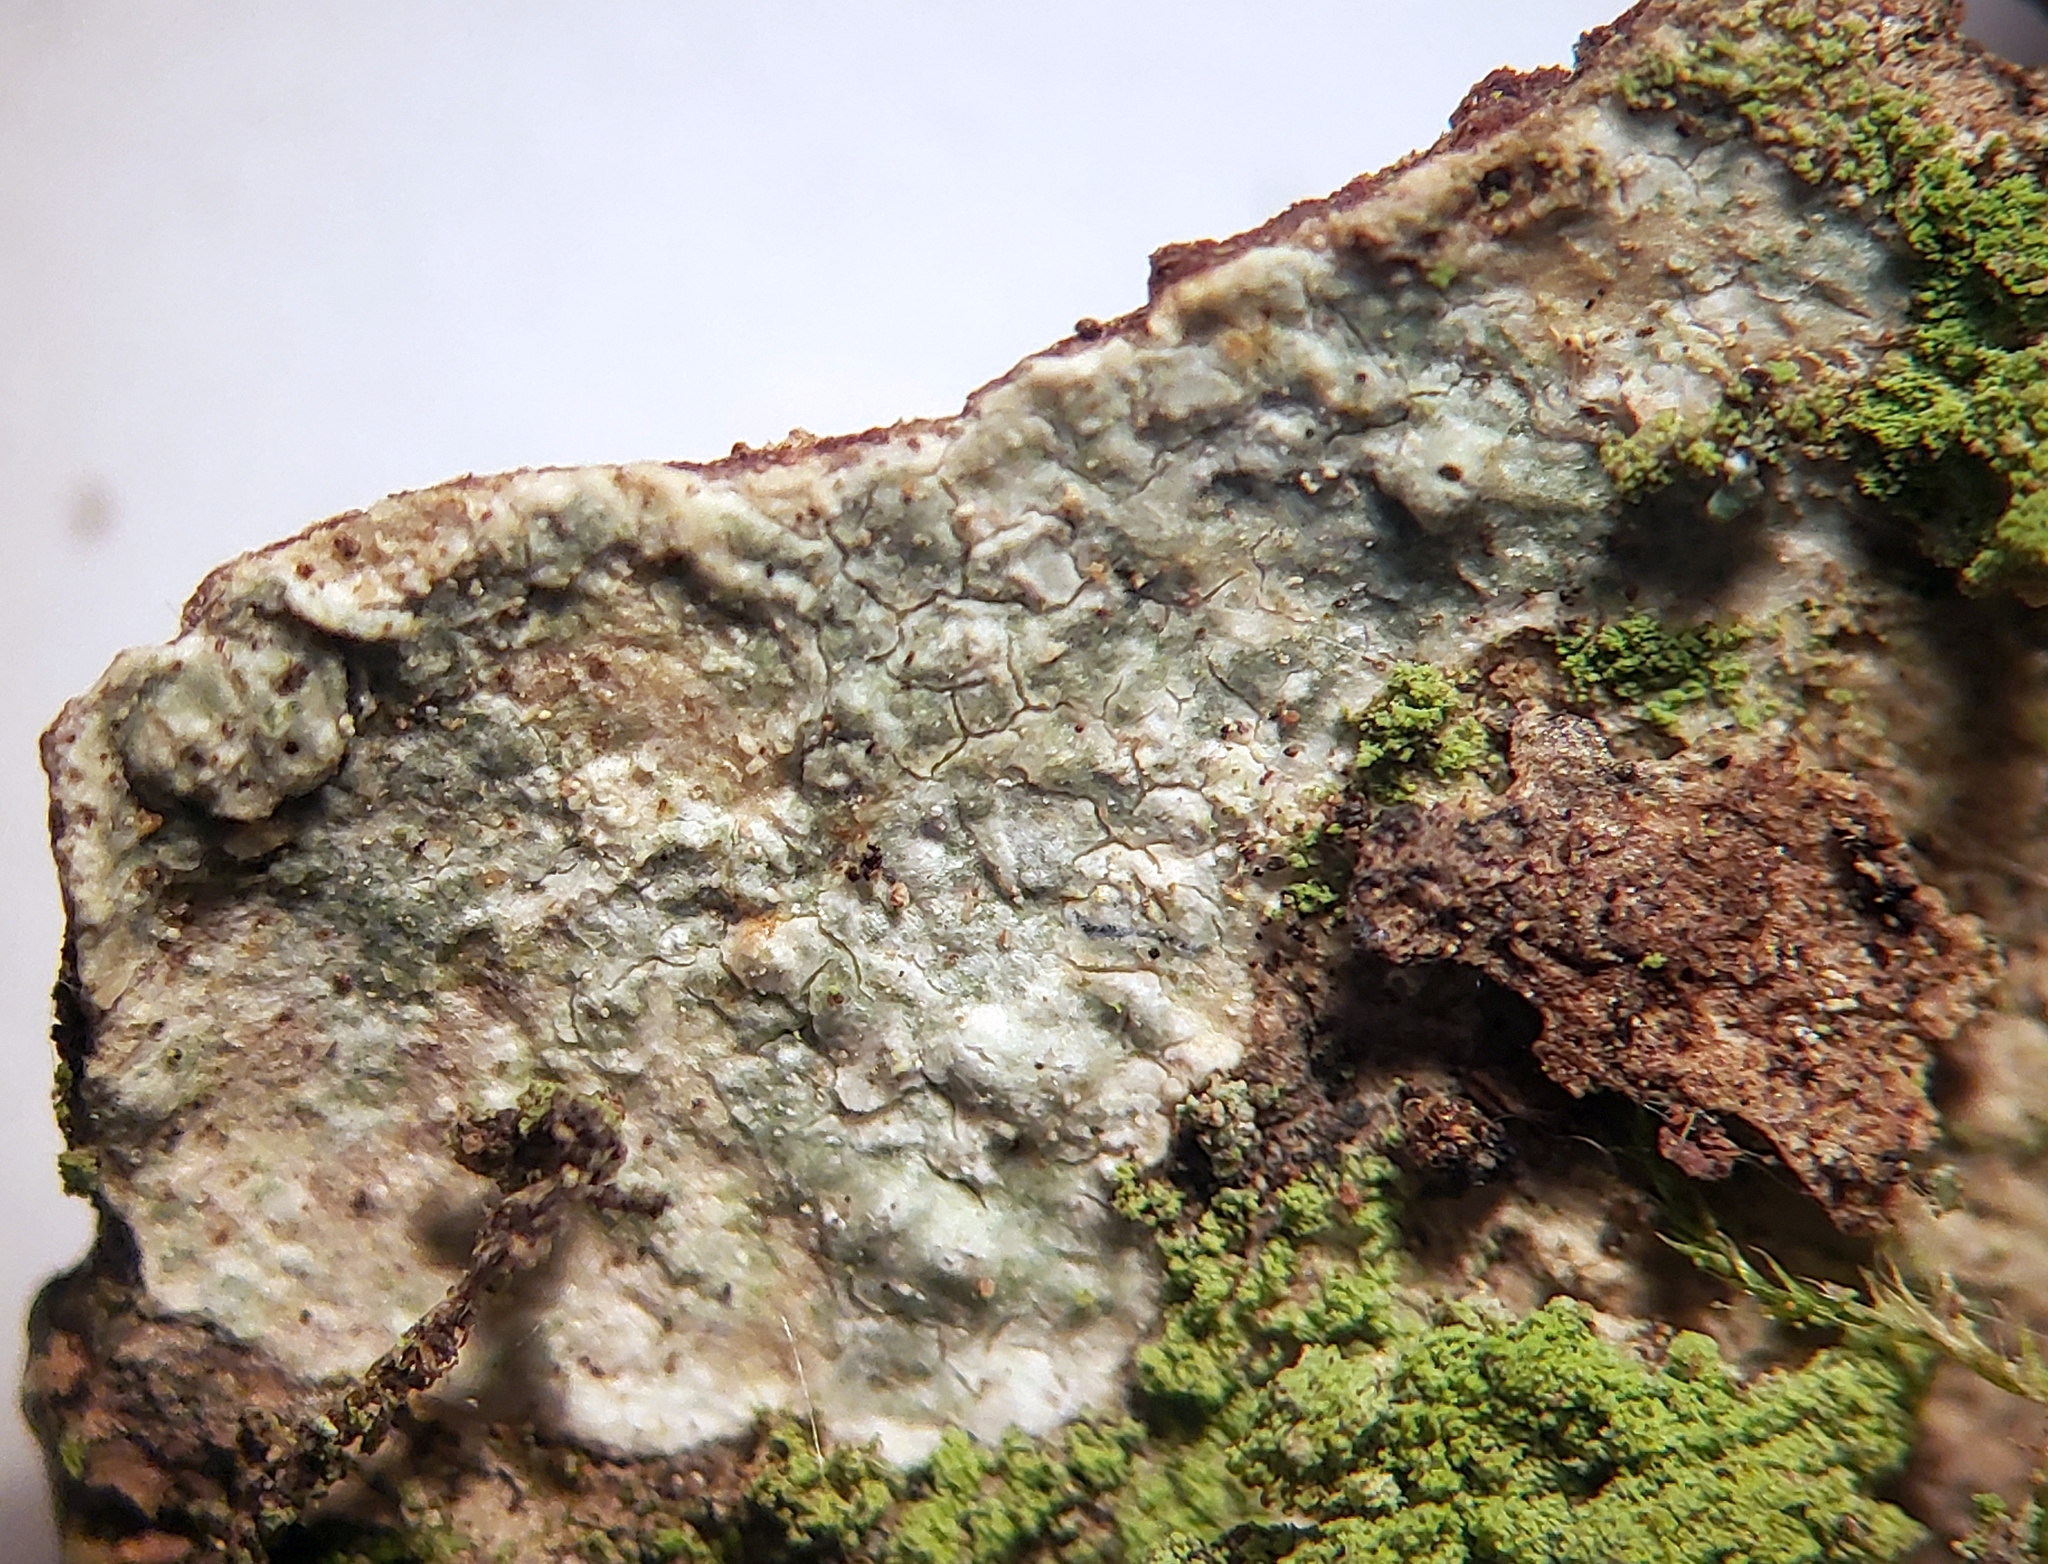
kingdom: Fungi
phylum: Ascomycota
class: Lecanoromycetes
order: Pertusariales
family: Pertusariaceae
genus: Pertusaria
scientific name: Pertusaria macounii
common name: Macoun's wart lichen
